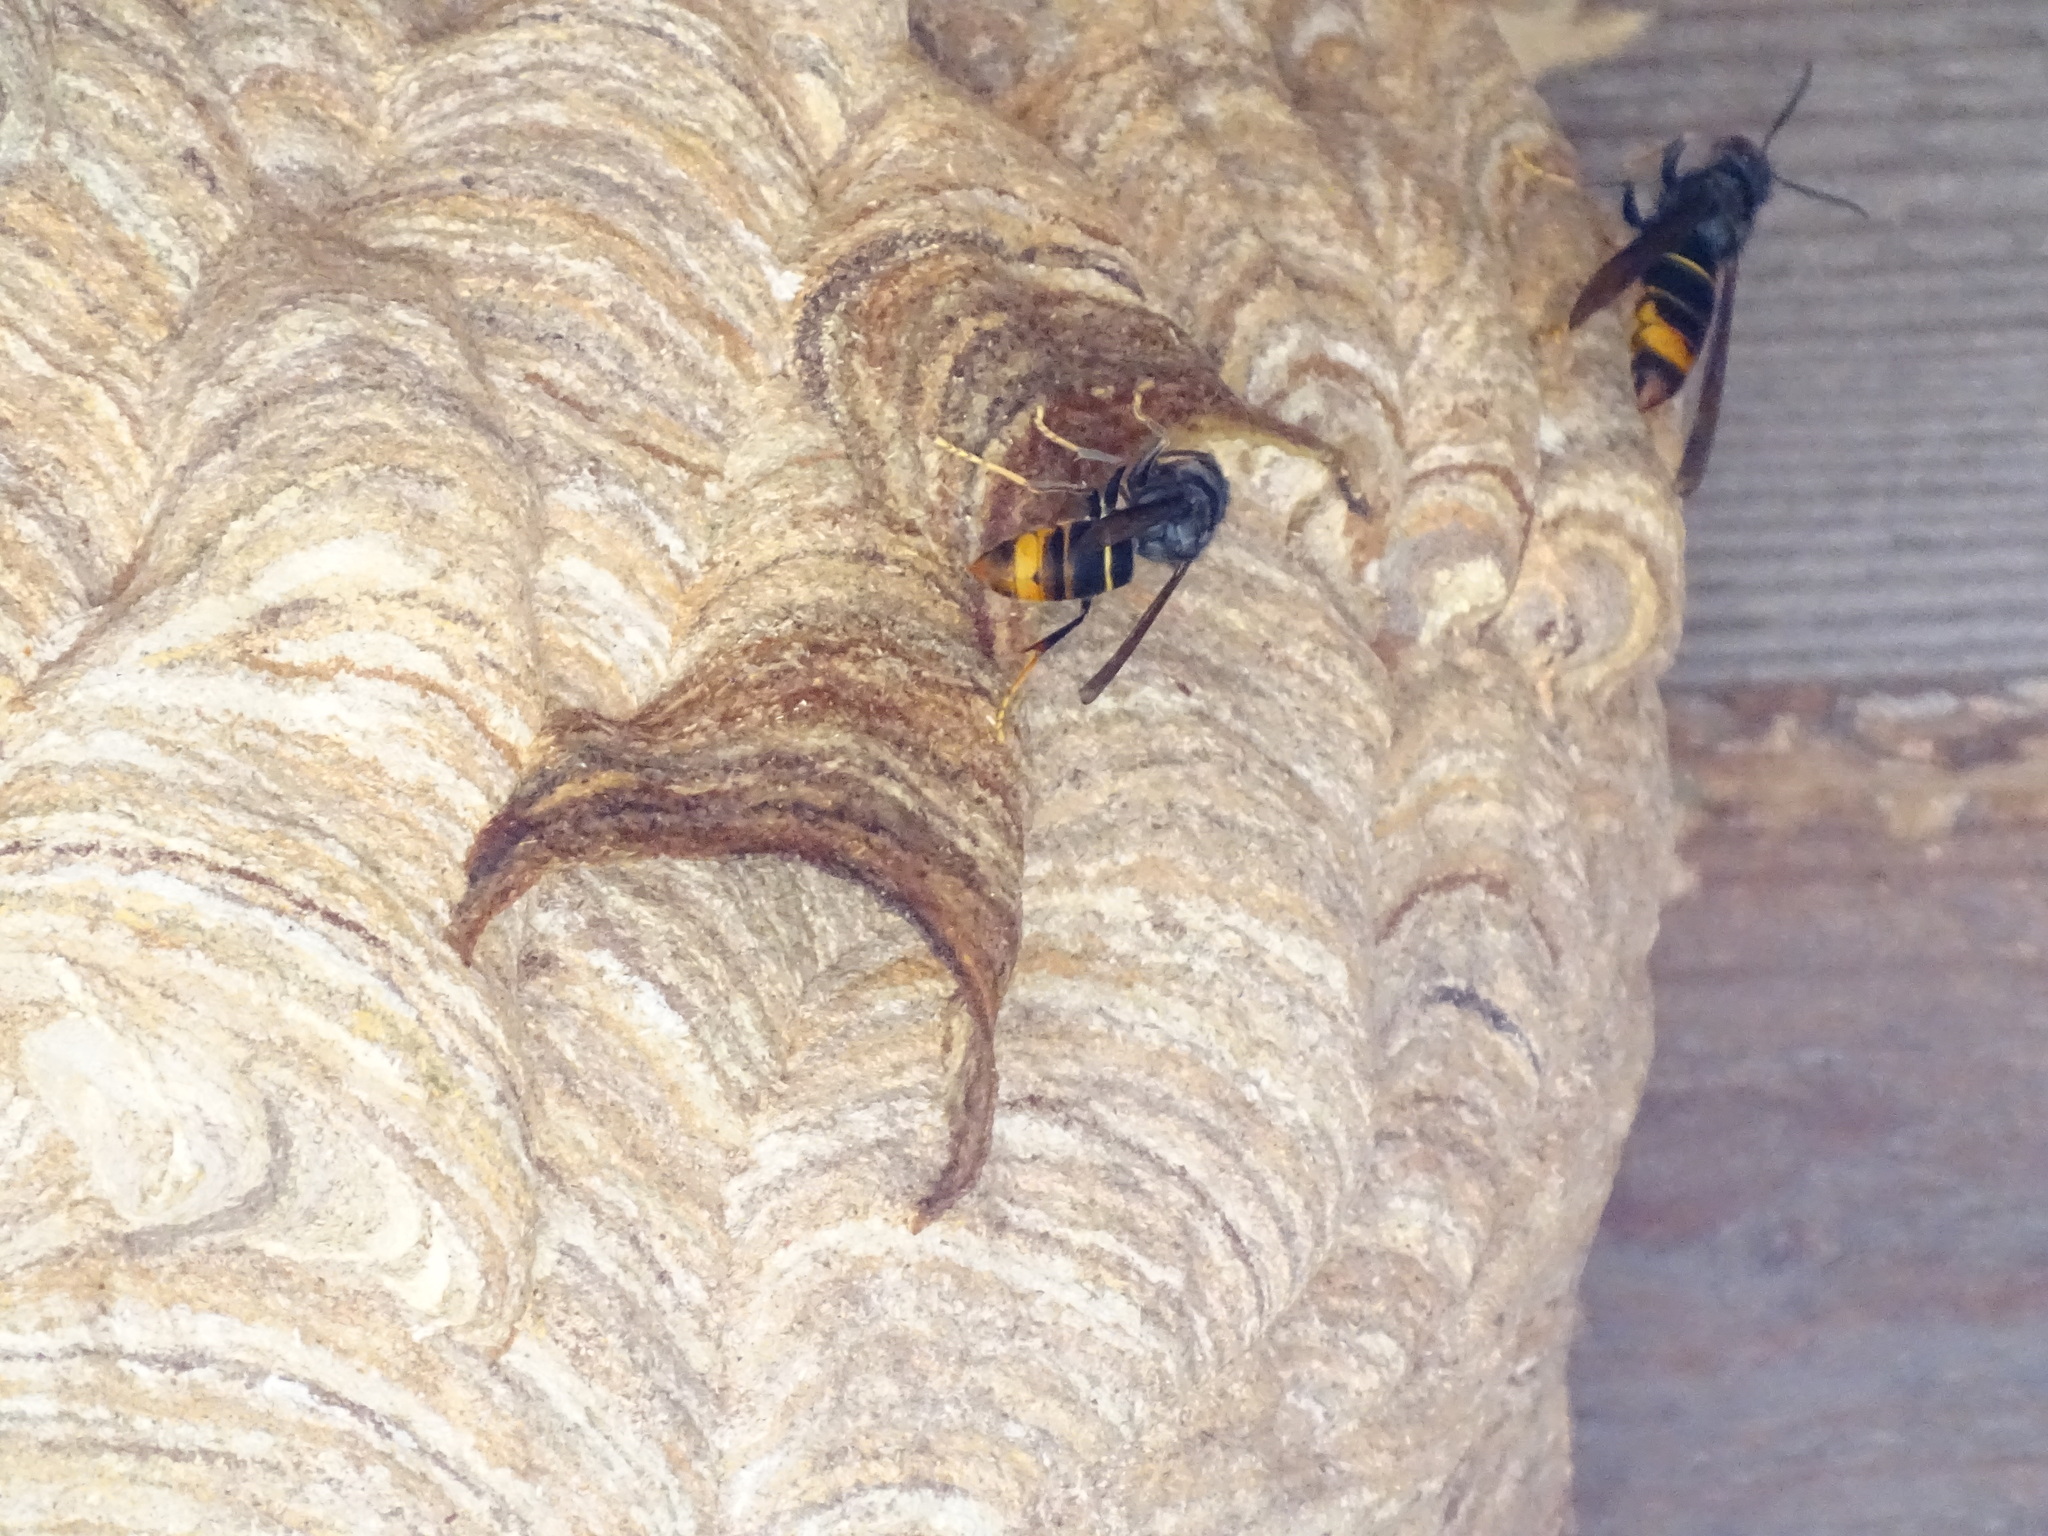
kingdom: Animalia
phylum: Arthropoda
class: Insecta
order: Hymenoptera
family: Vespidae
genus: Vespa
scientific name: Vespa velutina
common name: Asian hornet
